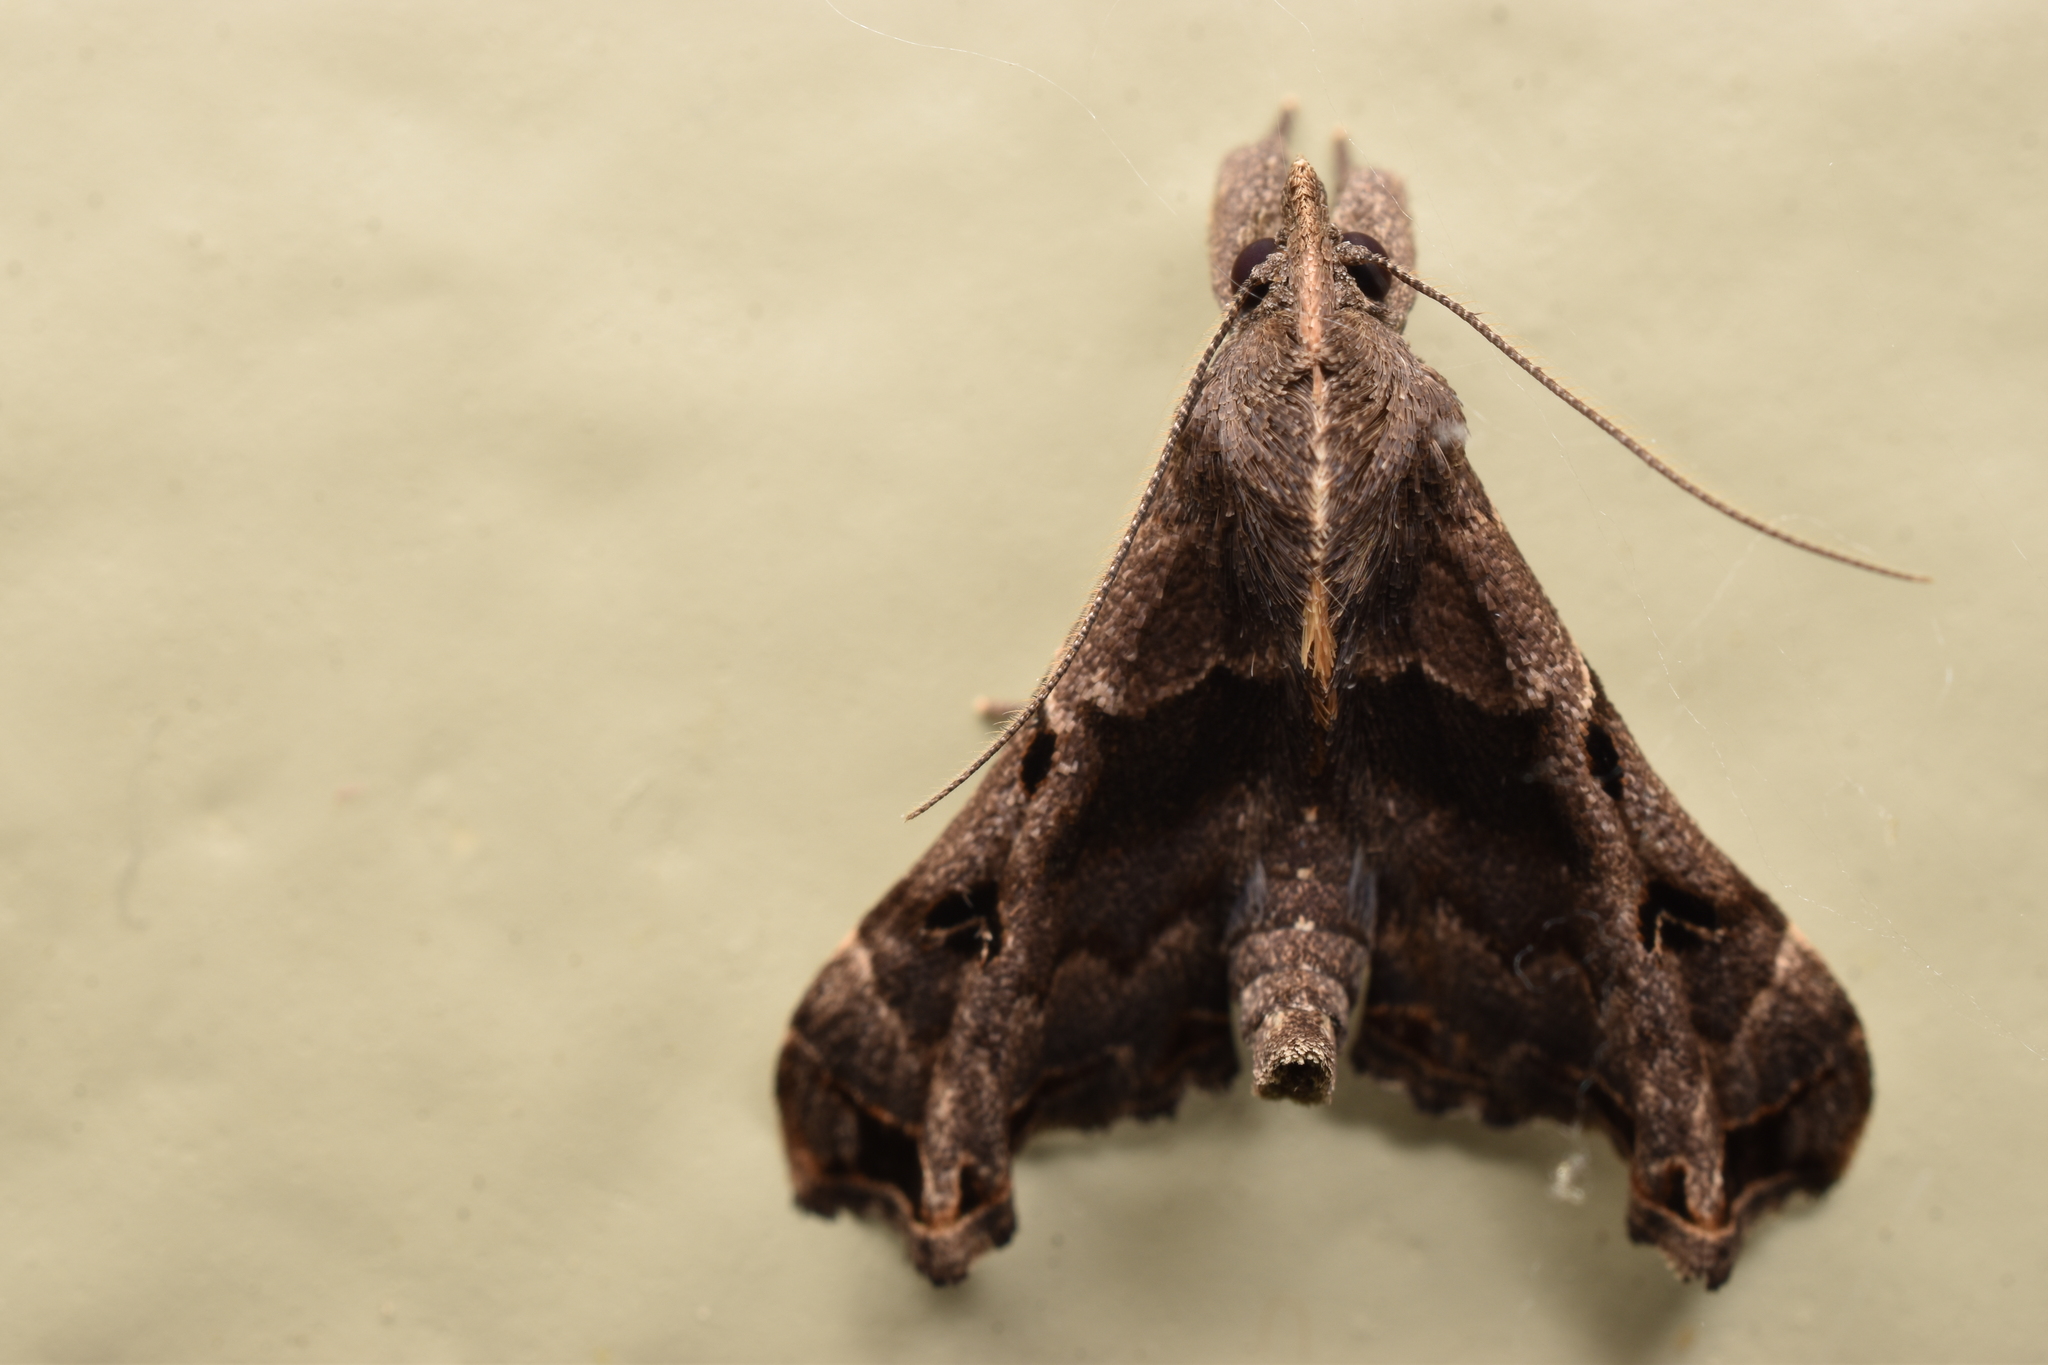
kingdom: Animalia
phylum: Arthropoda
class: Insecta
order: Lepidoptera
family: Erebidae
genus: Palthis
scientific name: Palthis asopialis
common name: Faint-spotted palthis moth
